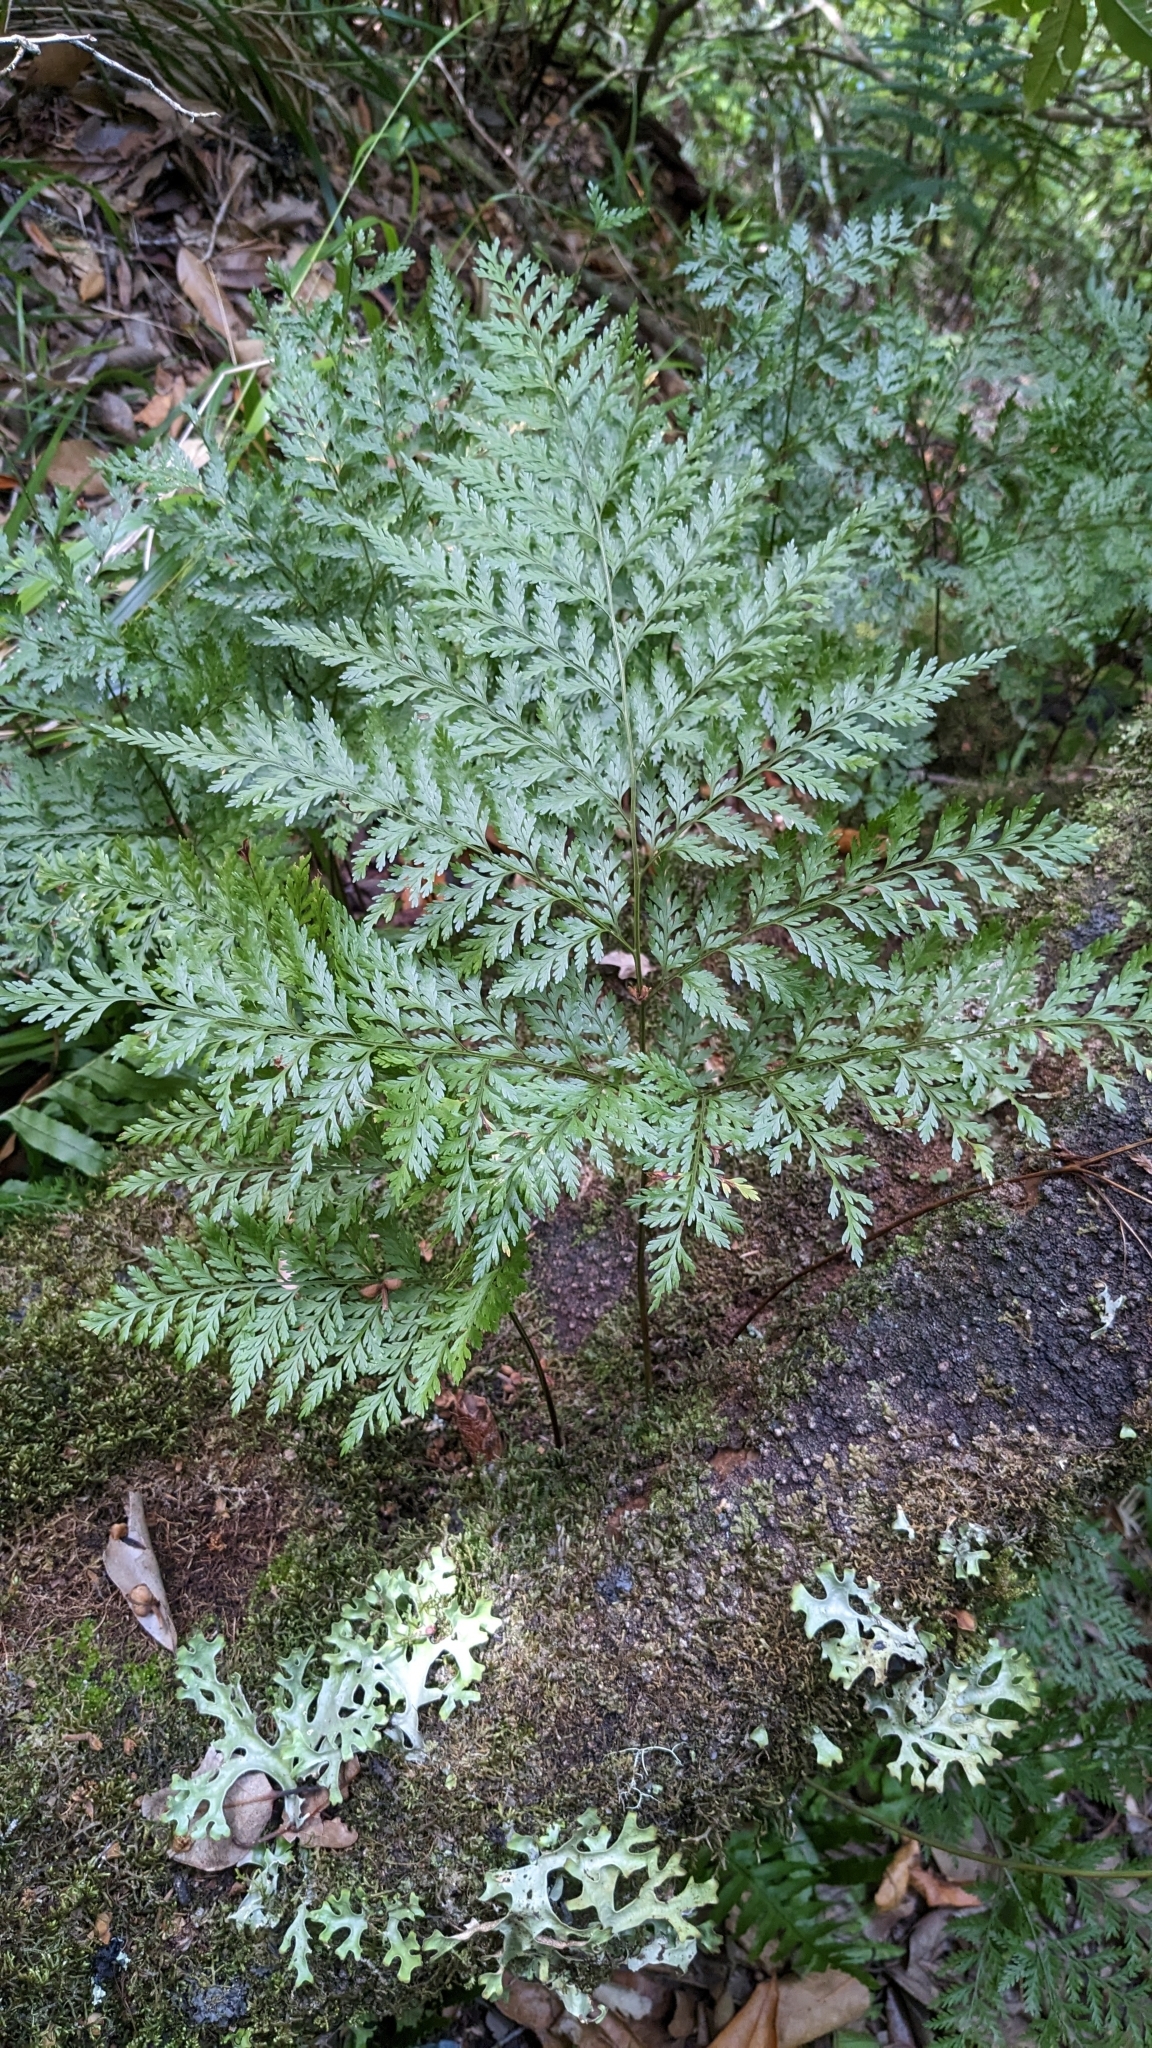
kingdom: Plantae
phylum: Tracheophyta
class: Polypodiopsida
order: Polypodiales
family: Davalliaceae
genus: Davallia
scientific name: Davallia canariensis
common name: Hare's-foot fern
